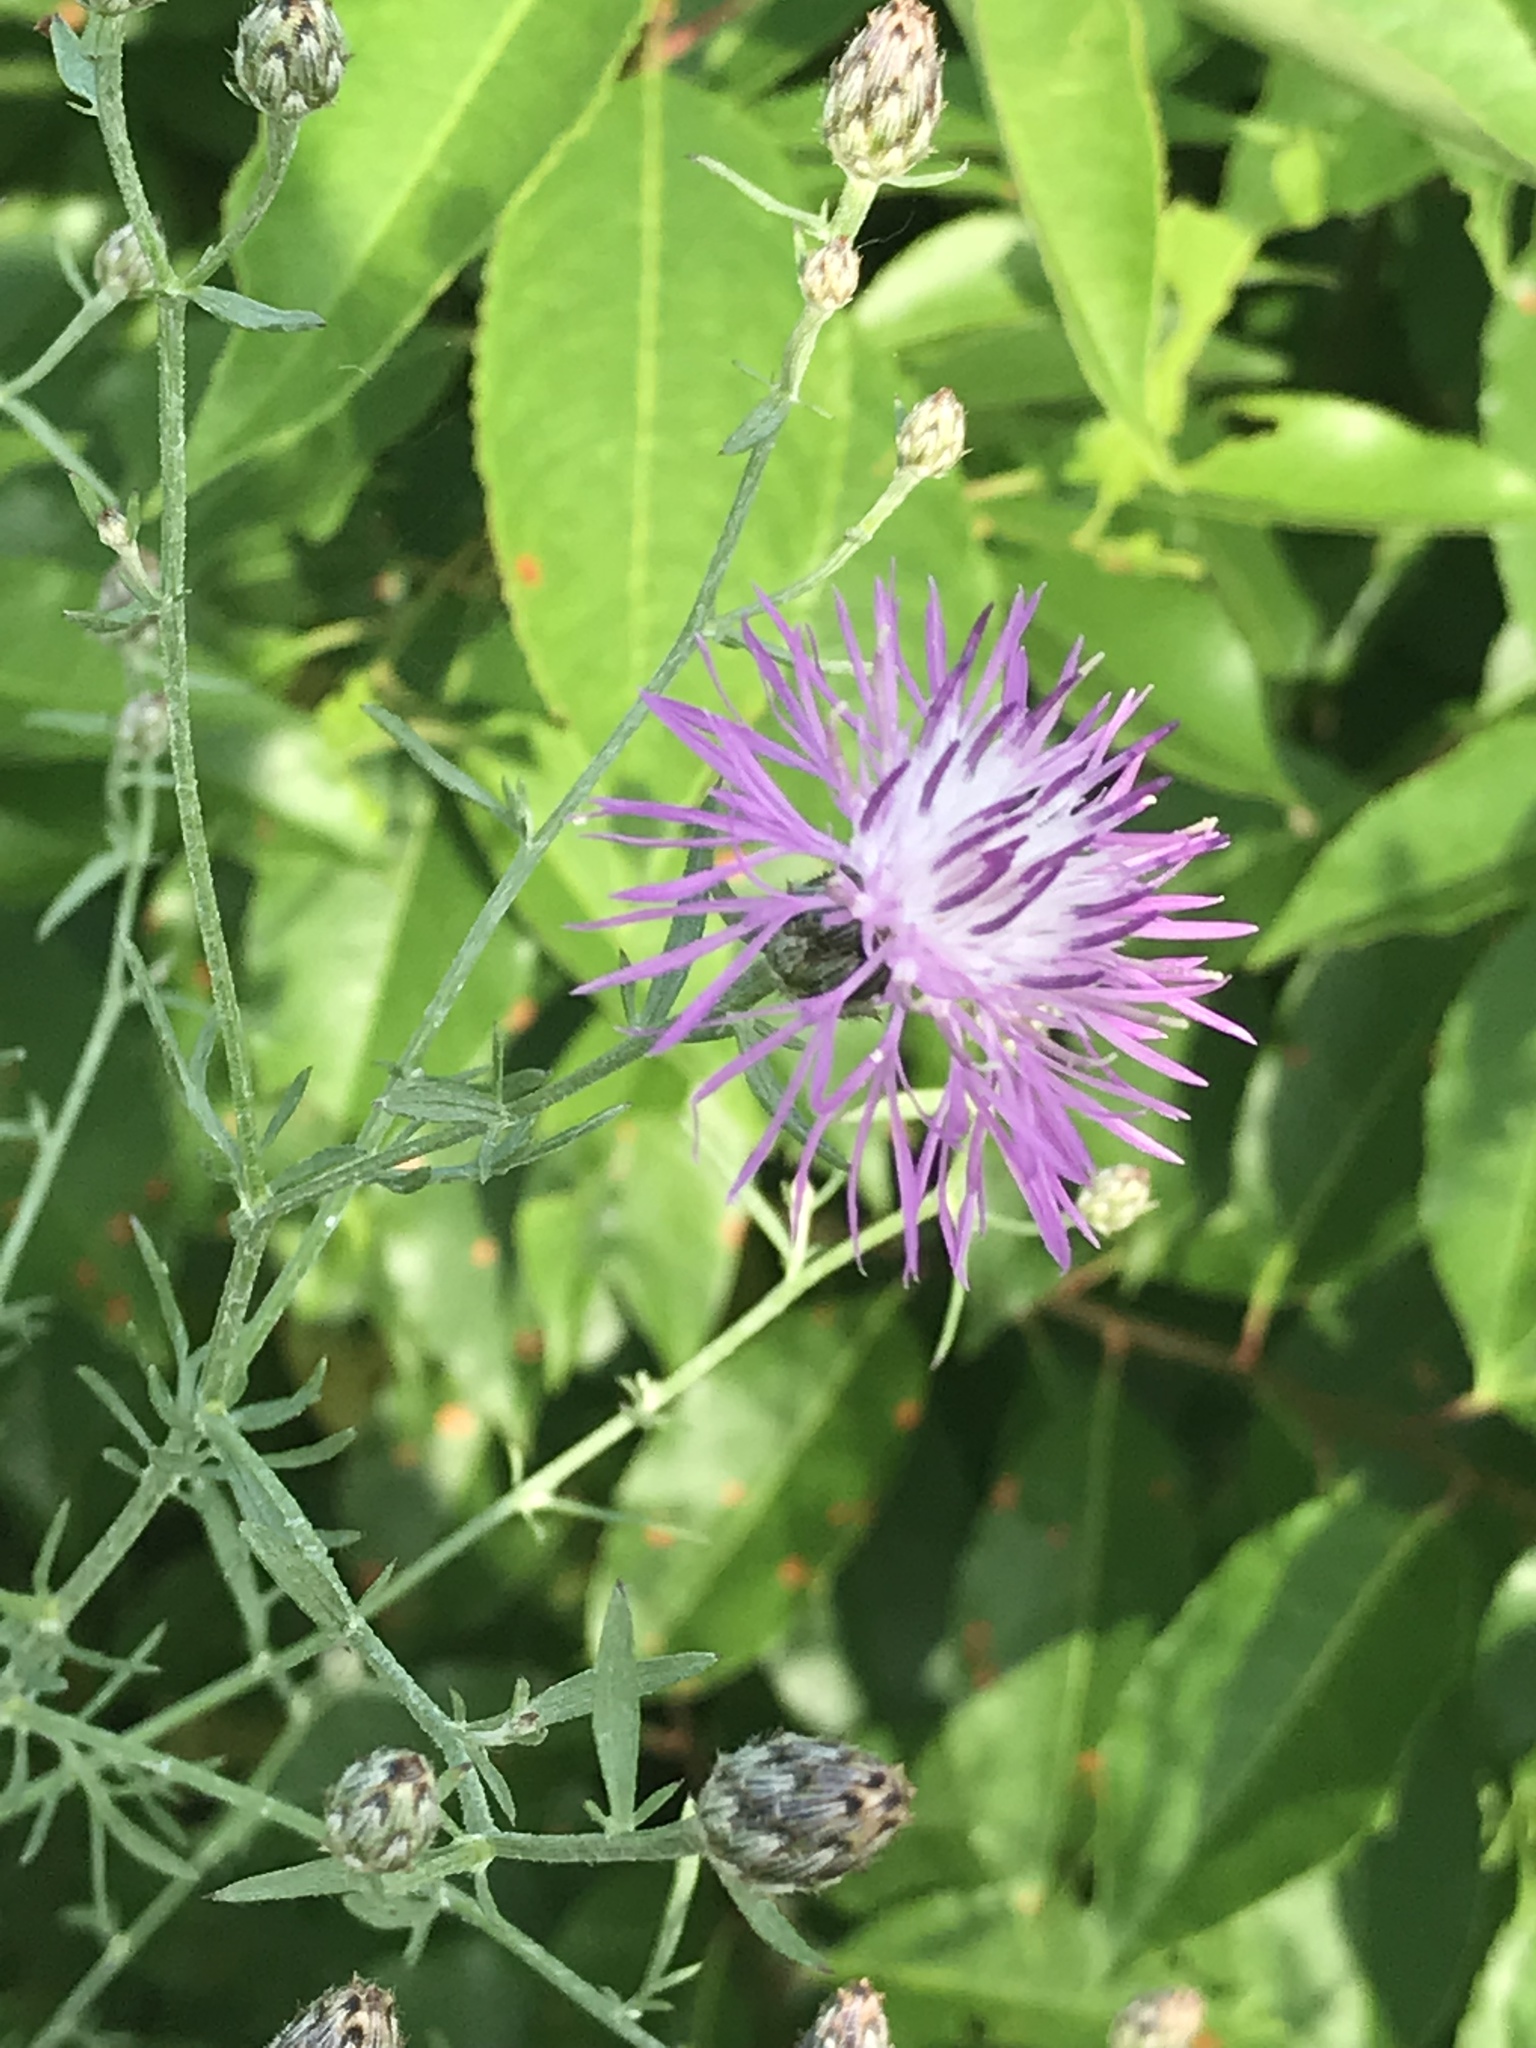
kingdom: Plantae
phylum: Tracheophyta
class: Magnoliopsida
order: Asterales
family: Asteraceae
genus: Centaurea
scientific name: Centaurea stoebe
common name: Spotted knapweed
